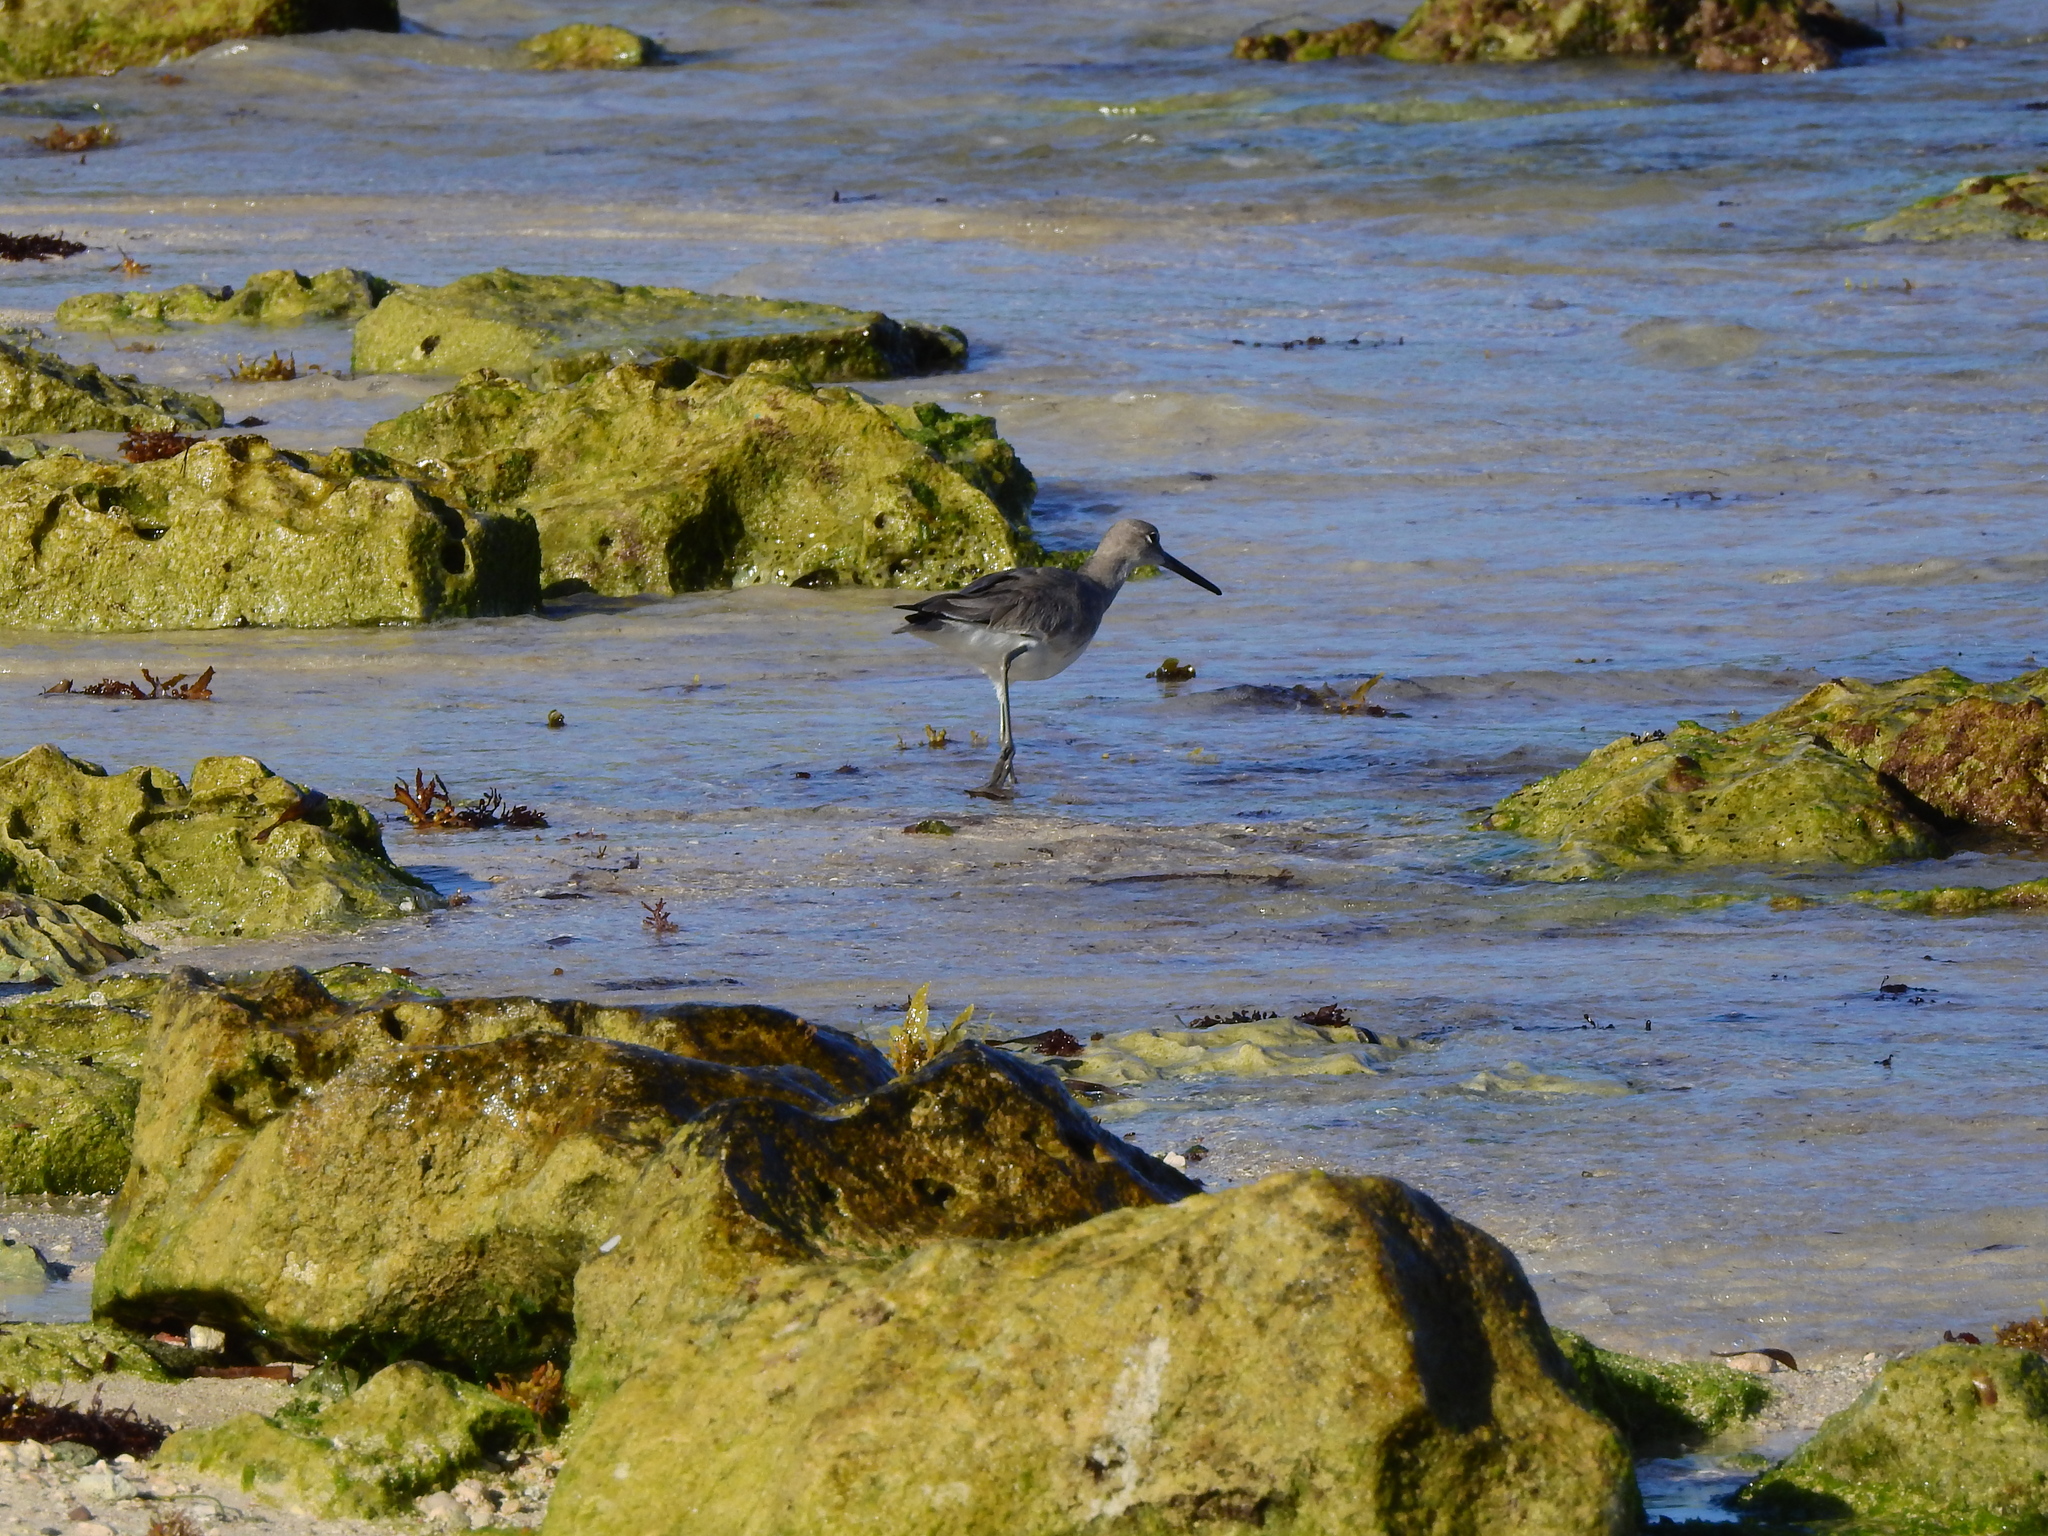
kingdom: Animalia
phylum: Chordata
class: Aves
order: Charadriiformes
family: Scolopacidae
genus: Tringa
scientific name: Tringa semipalmata
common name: Willet
